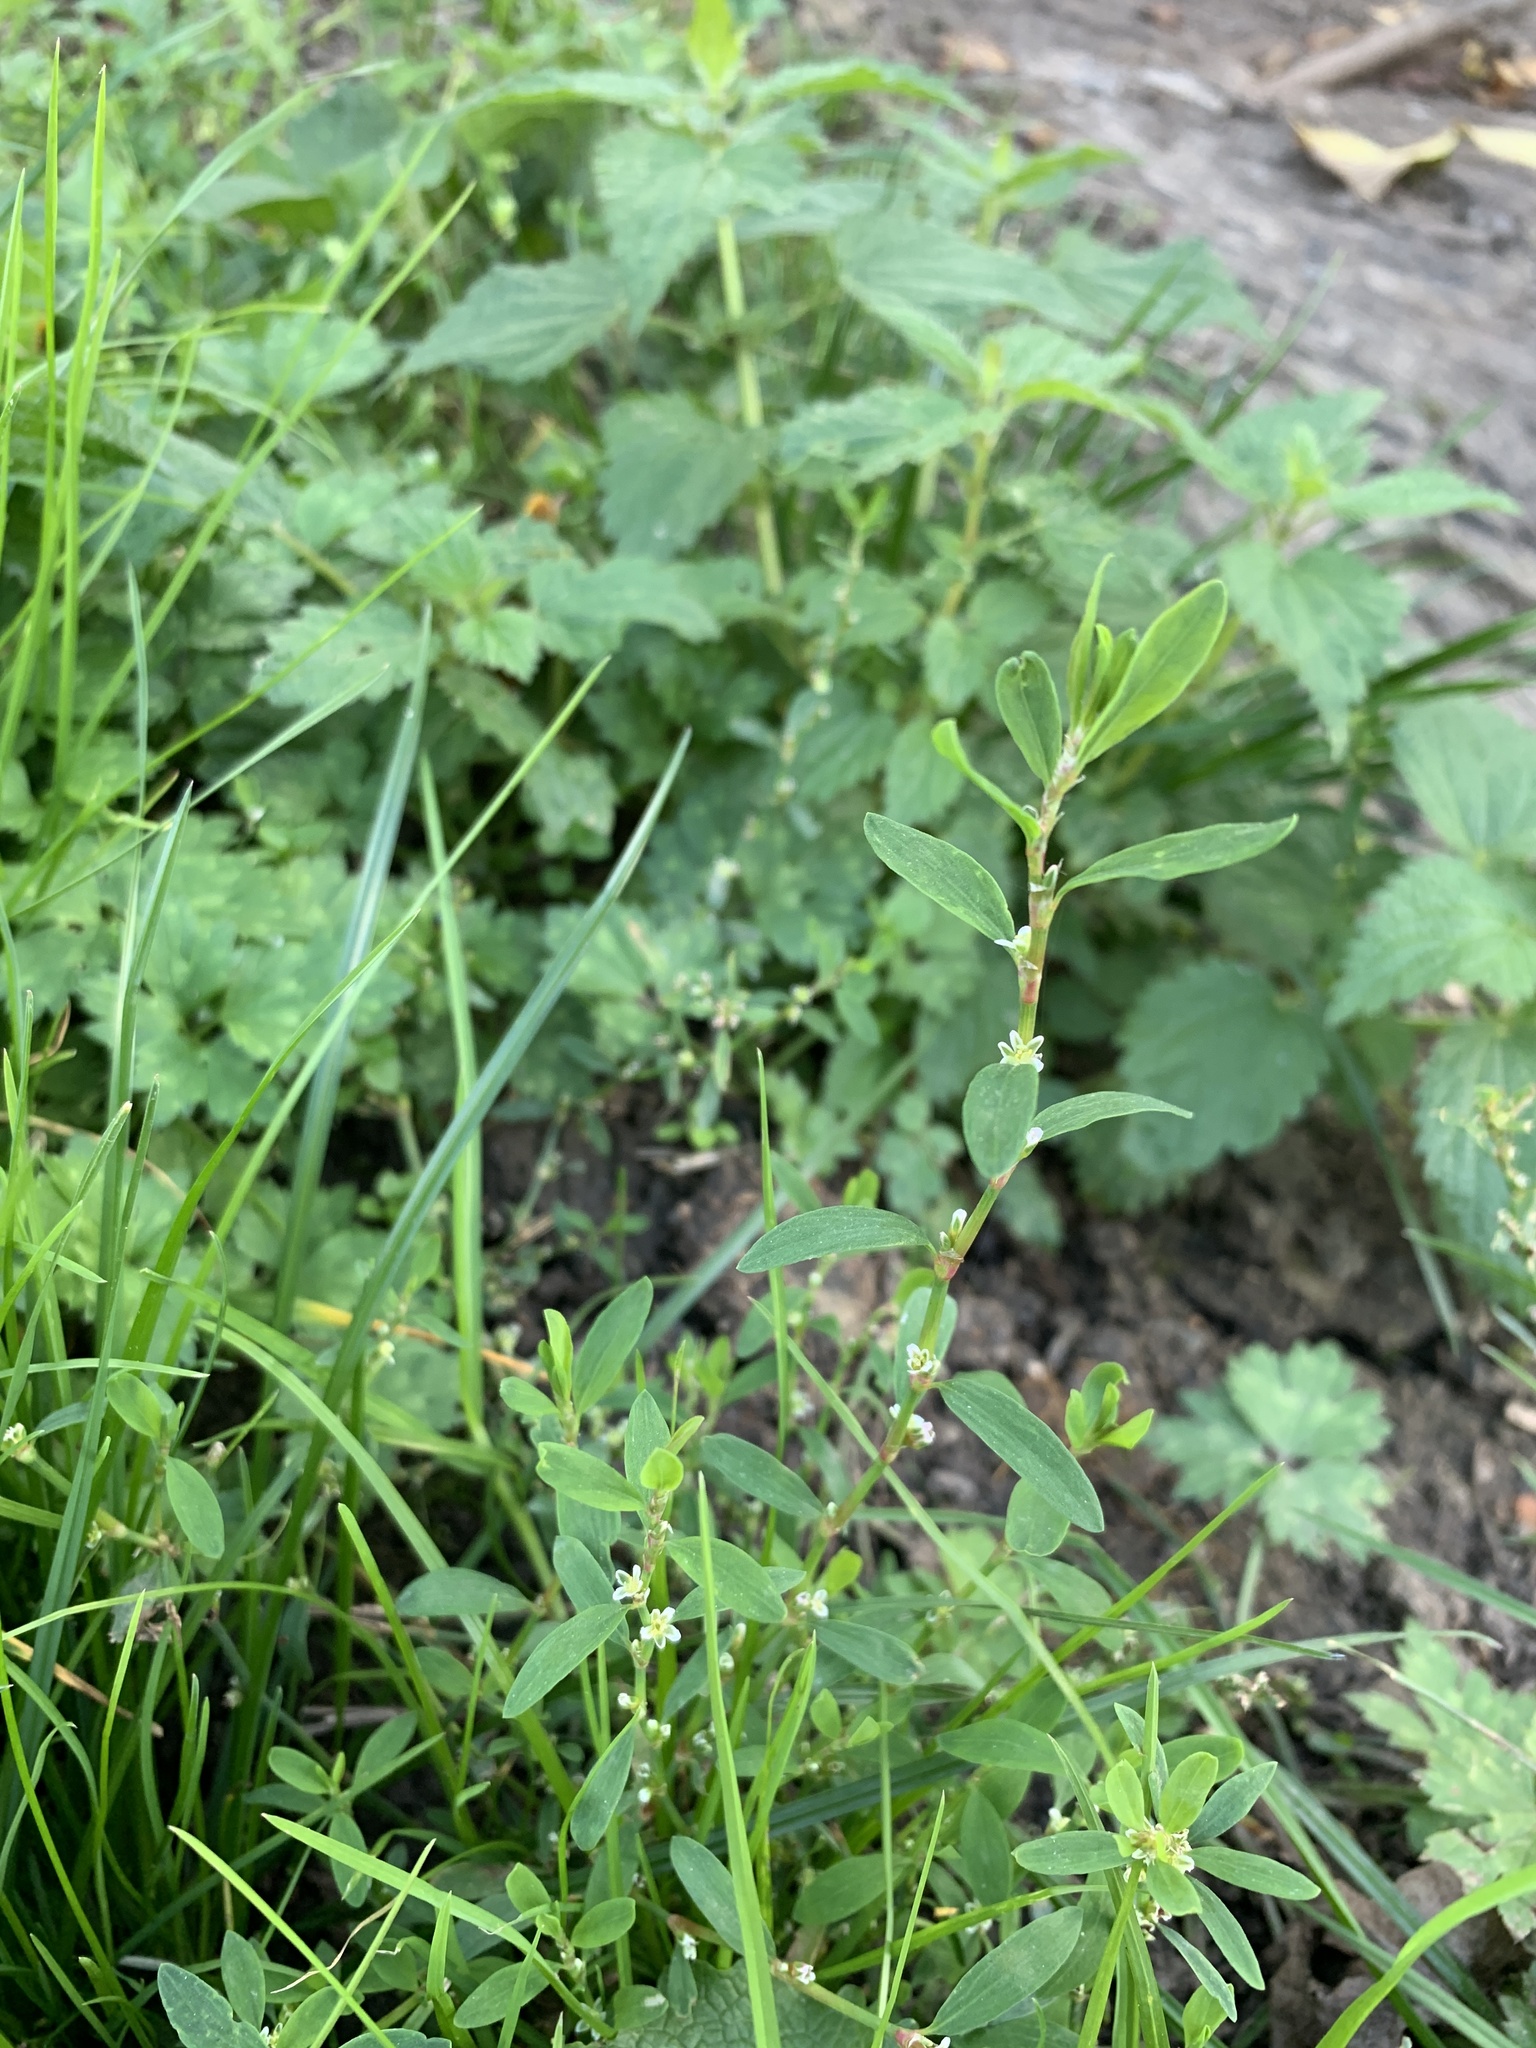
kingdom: Plantae
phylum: Tracheophyta
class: Magnoliopsida
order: Caryophyllales
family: Polygonaceae
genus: Polygonum
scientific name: Polygonum
